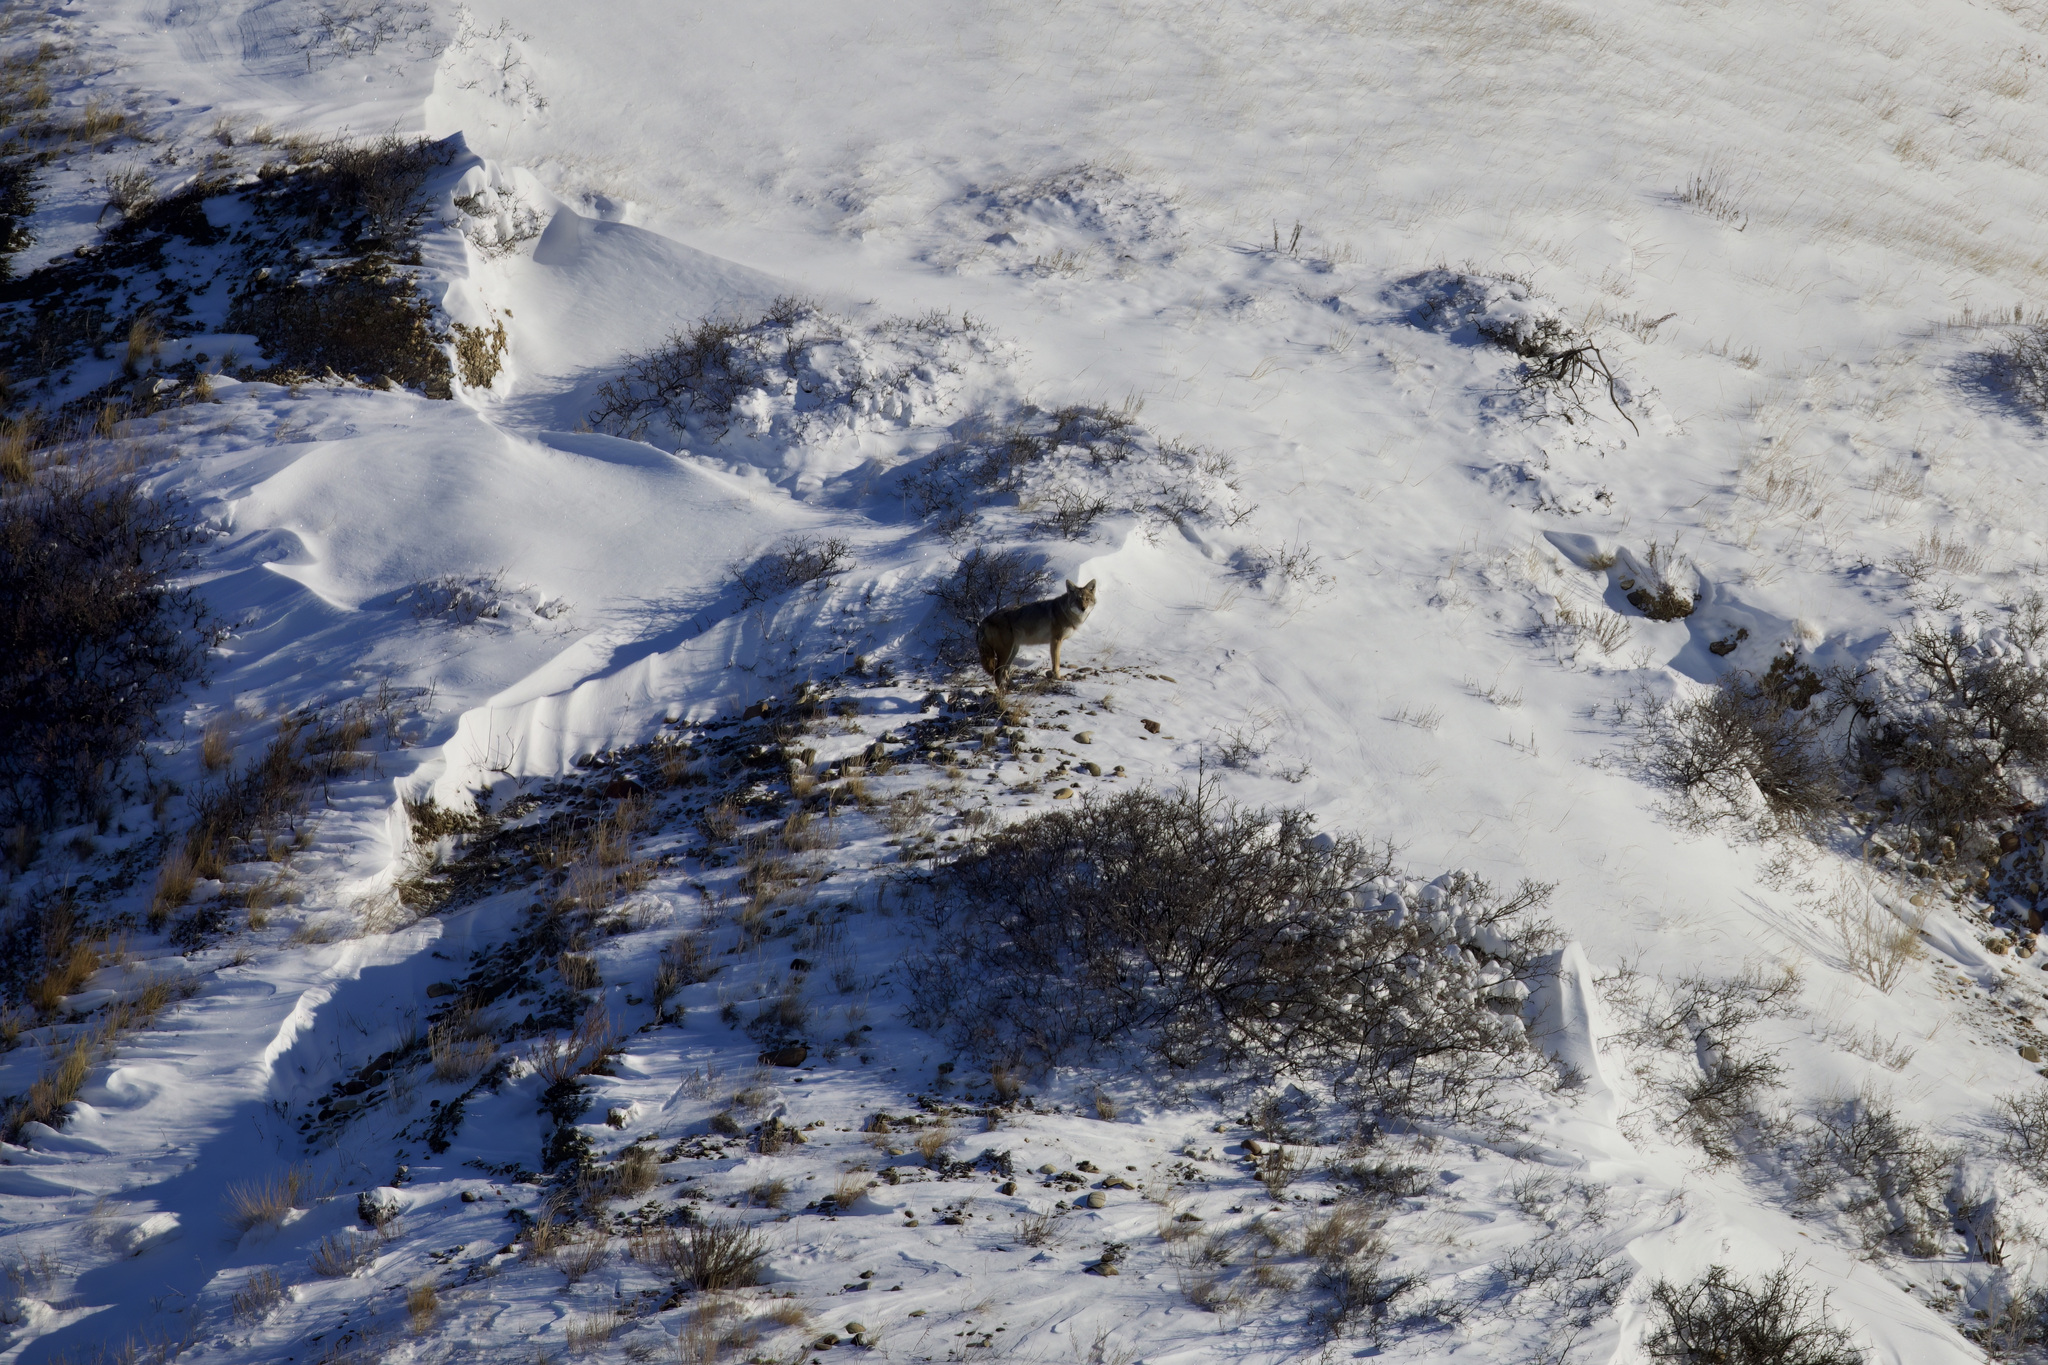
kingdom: Animalia
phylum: Chordata
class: Mammalia
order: Carnivora
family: Canidae
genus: Canis
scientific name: Canis latrans
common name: Coyote
